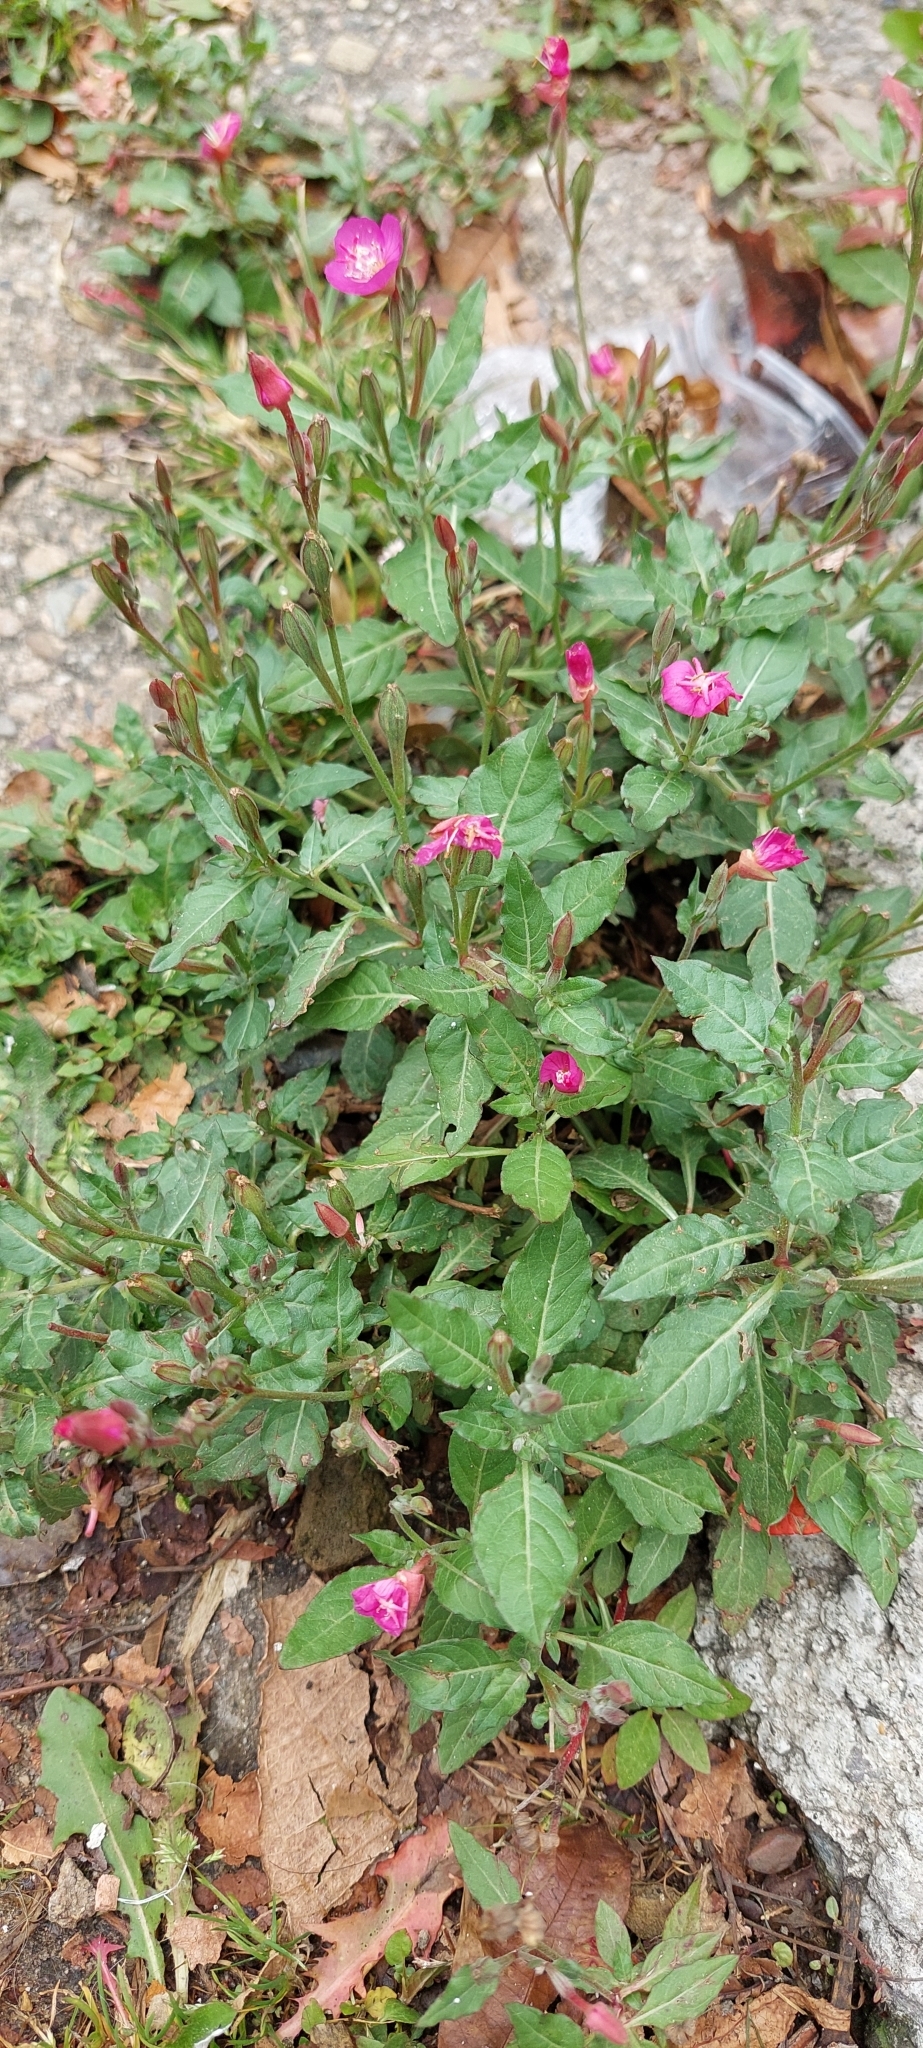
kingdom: Plantae
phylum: Tracheophyta
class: Magnoliopsida
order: Myrtales
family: Onagraceae
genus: Oenothera
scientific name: Oenothera rosea
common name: Rosy evening-primrose
